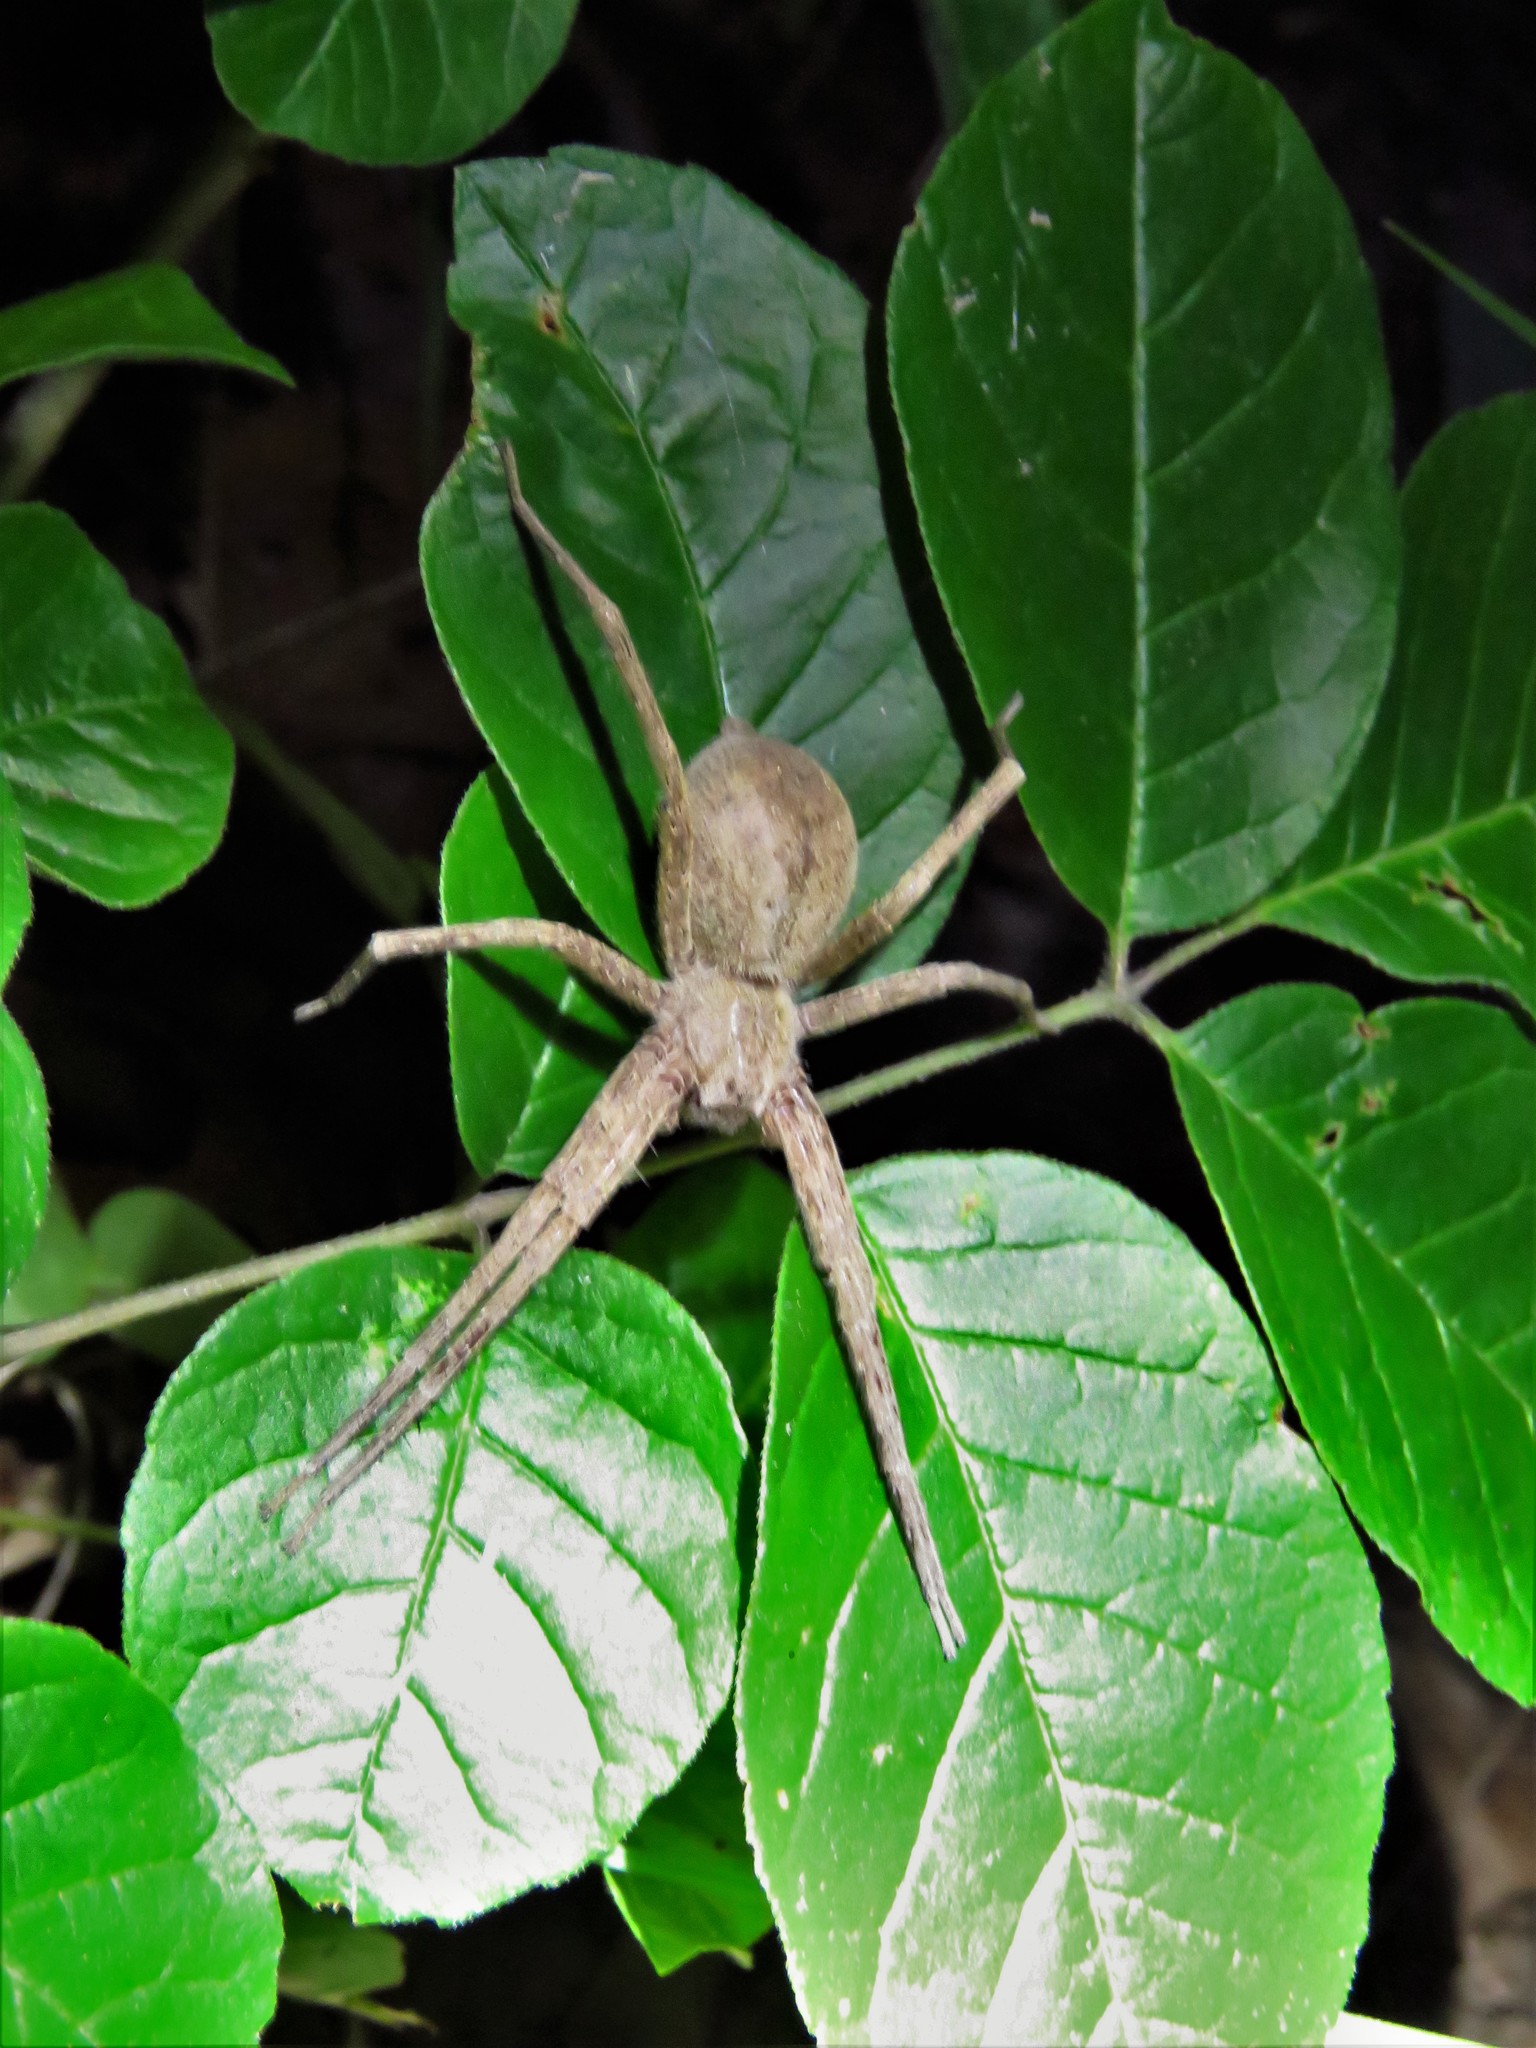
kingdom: Animalia
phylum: Arthropoda
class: Arachnida
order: Araneae
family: Pisauridae
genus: Pisaurina
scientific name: Pisaurina mira
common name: American nursery web spider
